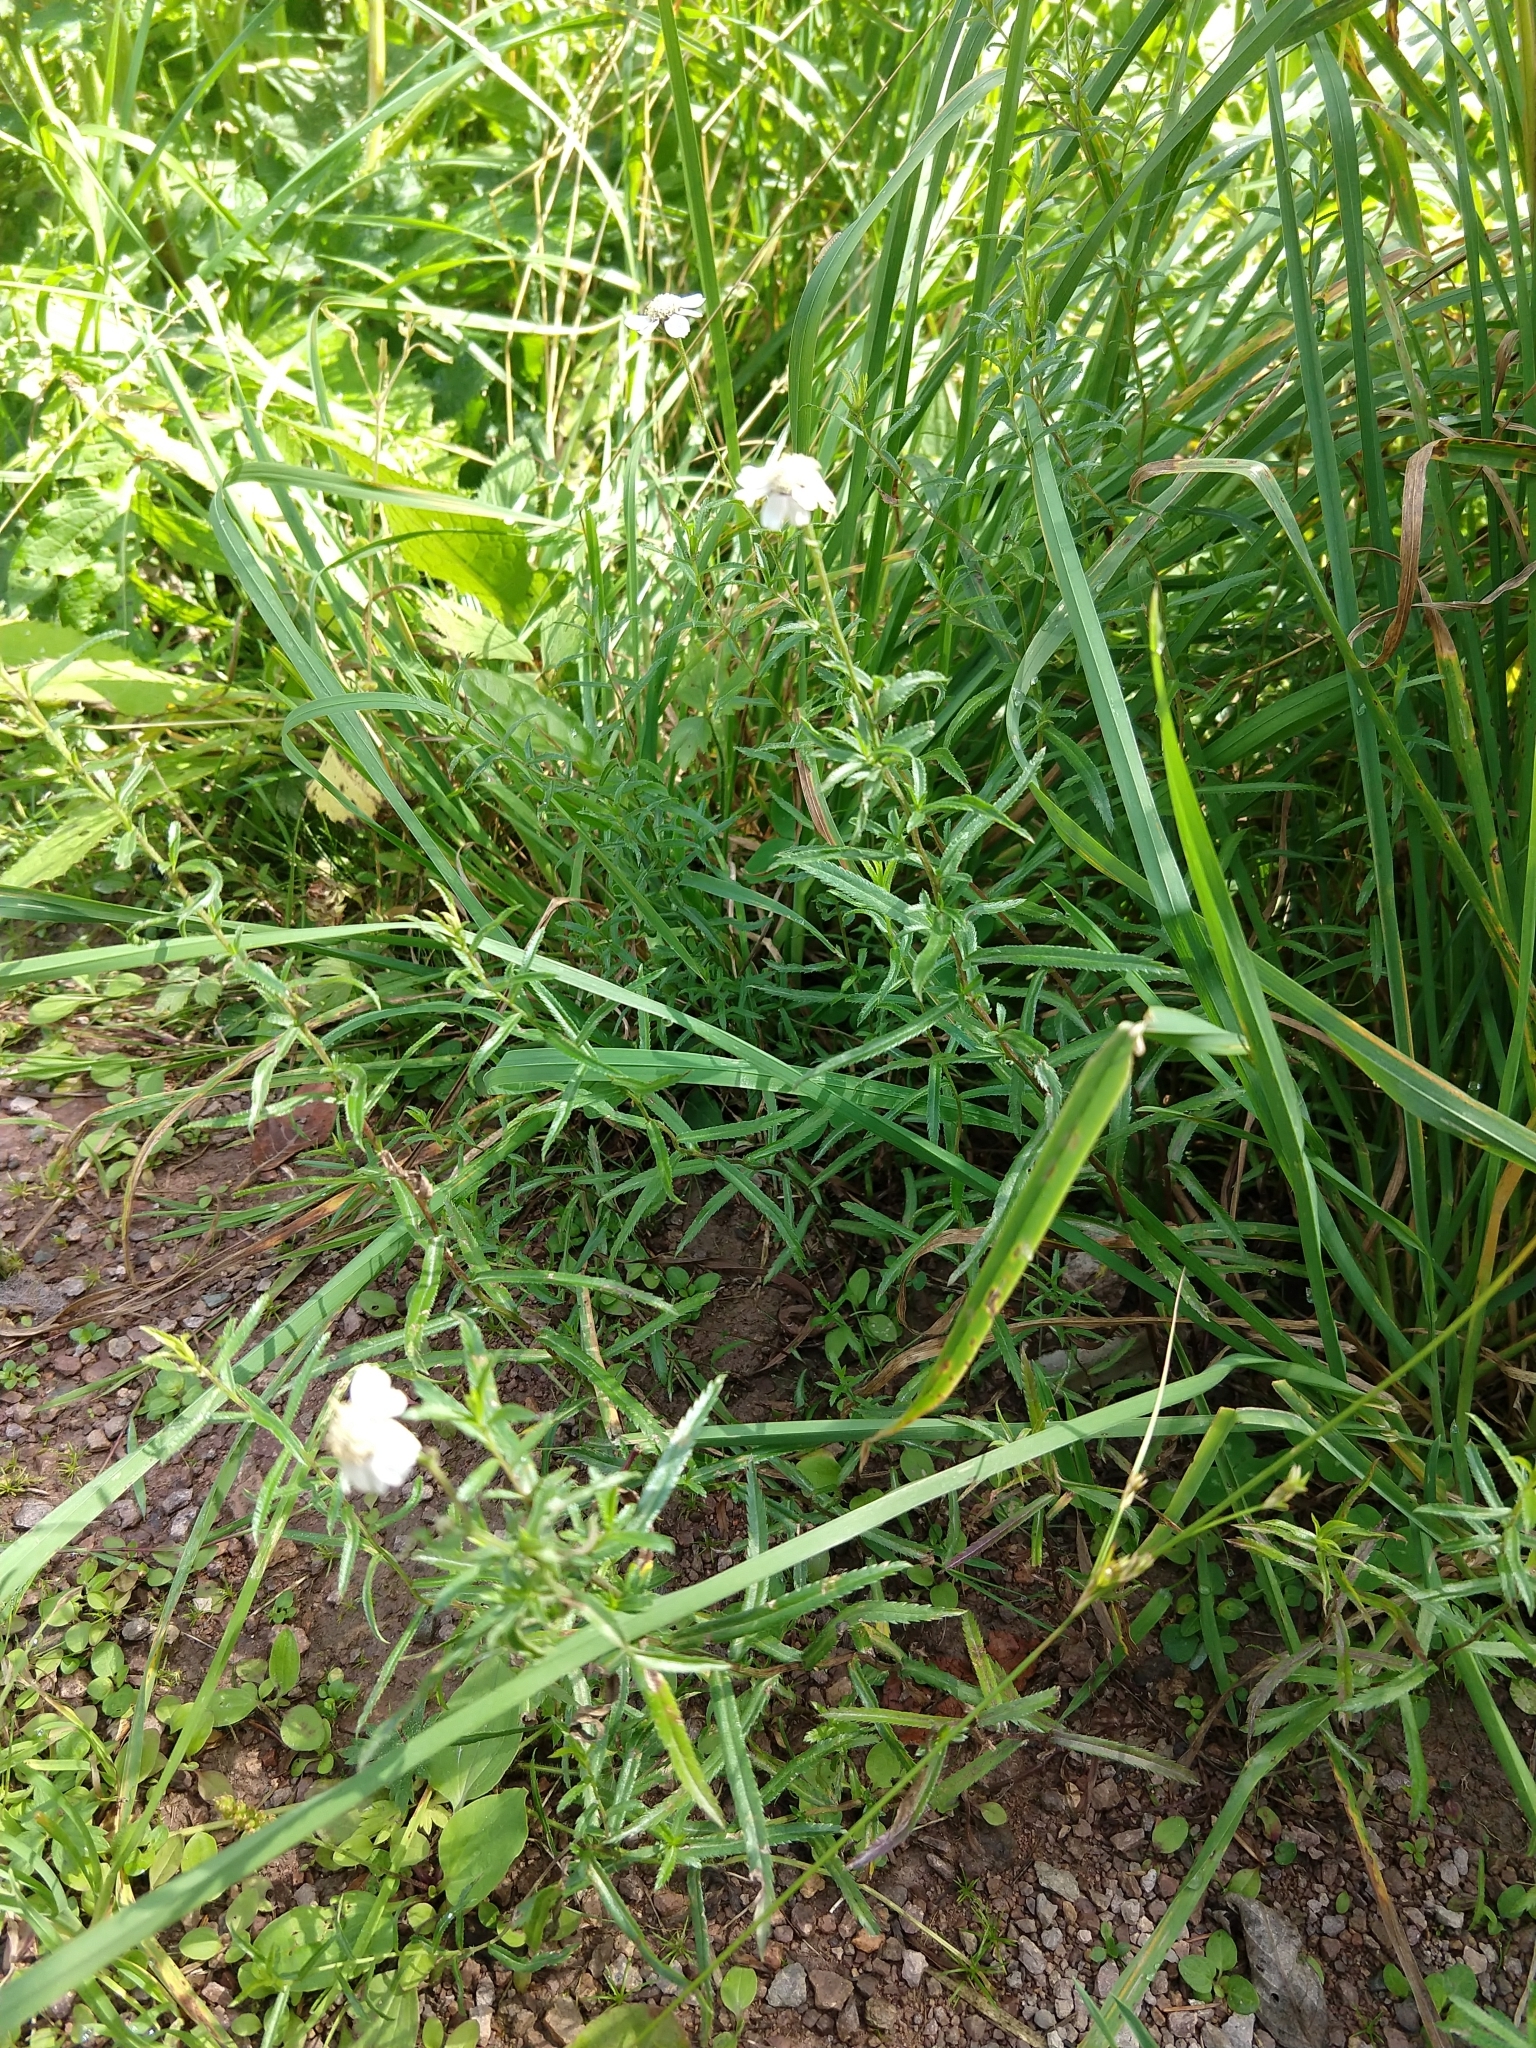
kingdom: Plantae
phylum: Tracheophyta
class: Magnoliopsida
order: Asterales
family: Asteraceae
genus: Achillea
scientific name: Achillea ptarmica
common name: Sneezeweed
